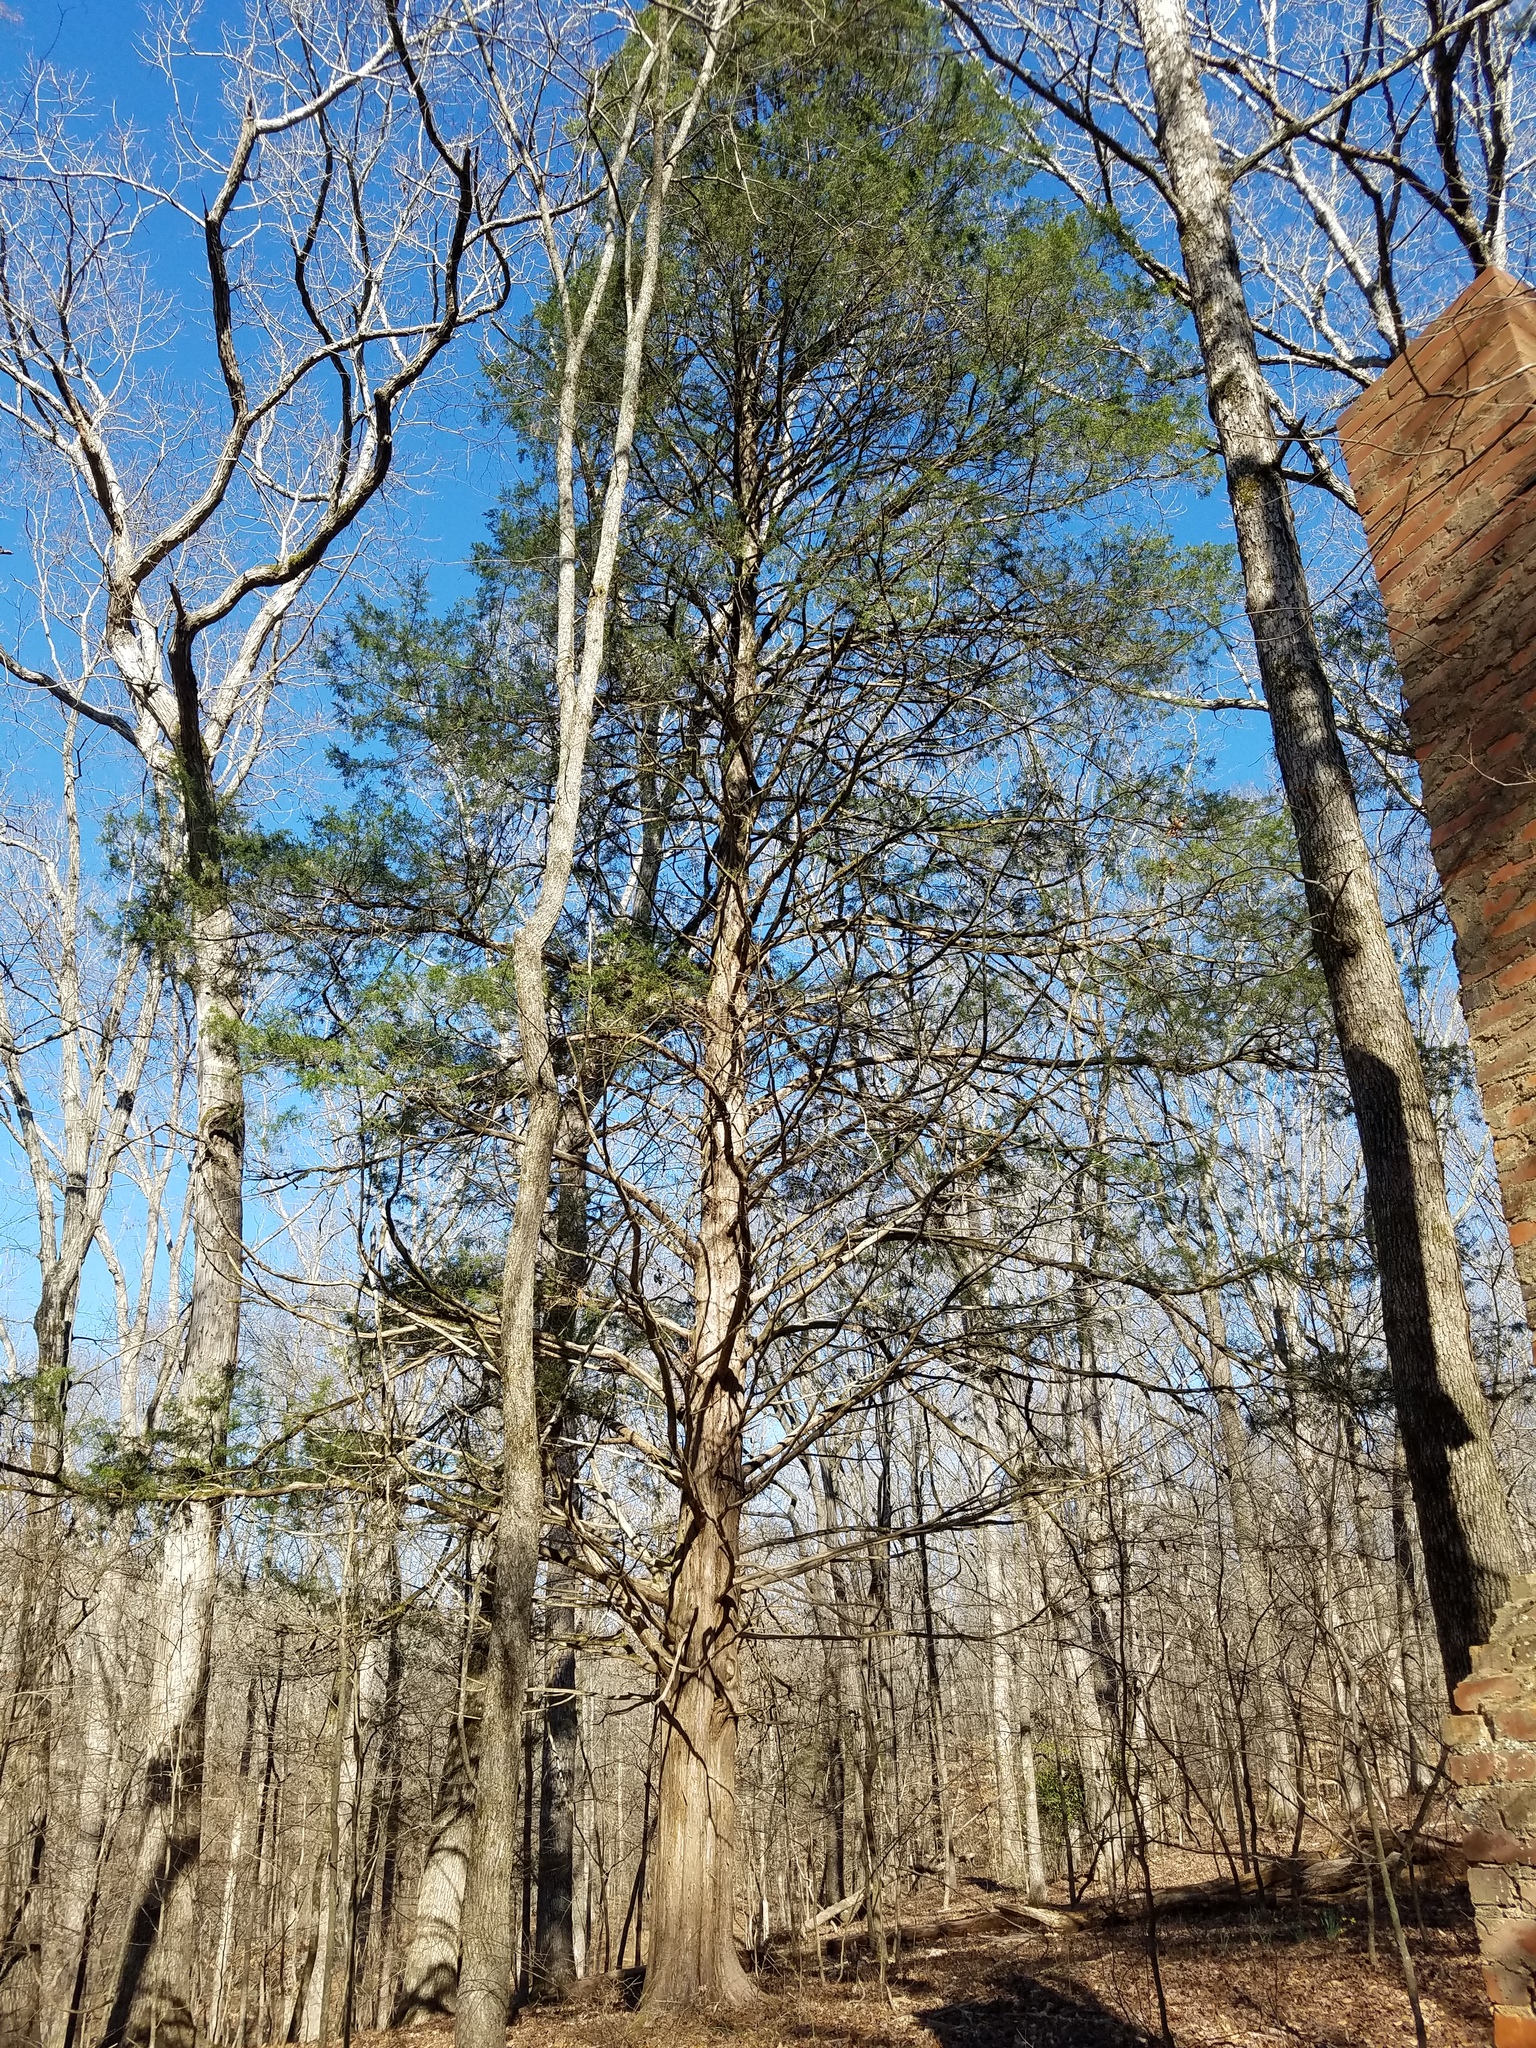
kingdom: Plantae
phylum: Tracheophyta
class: Pinopsida
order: Pinales
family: Cupressaceae
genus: Juniperus
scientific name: Juniperus virginiana
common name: Red juniper
